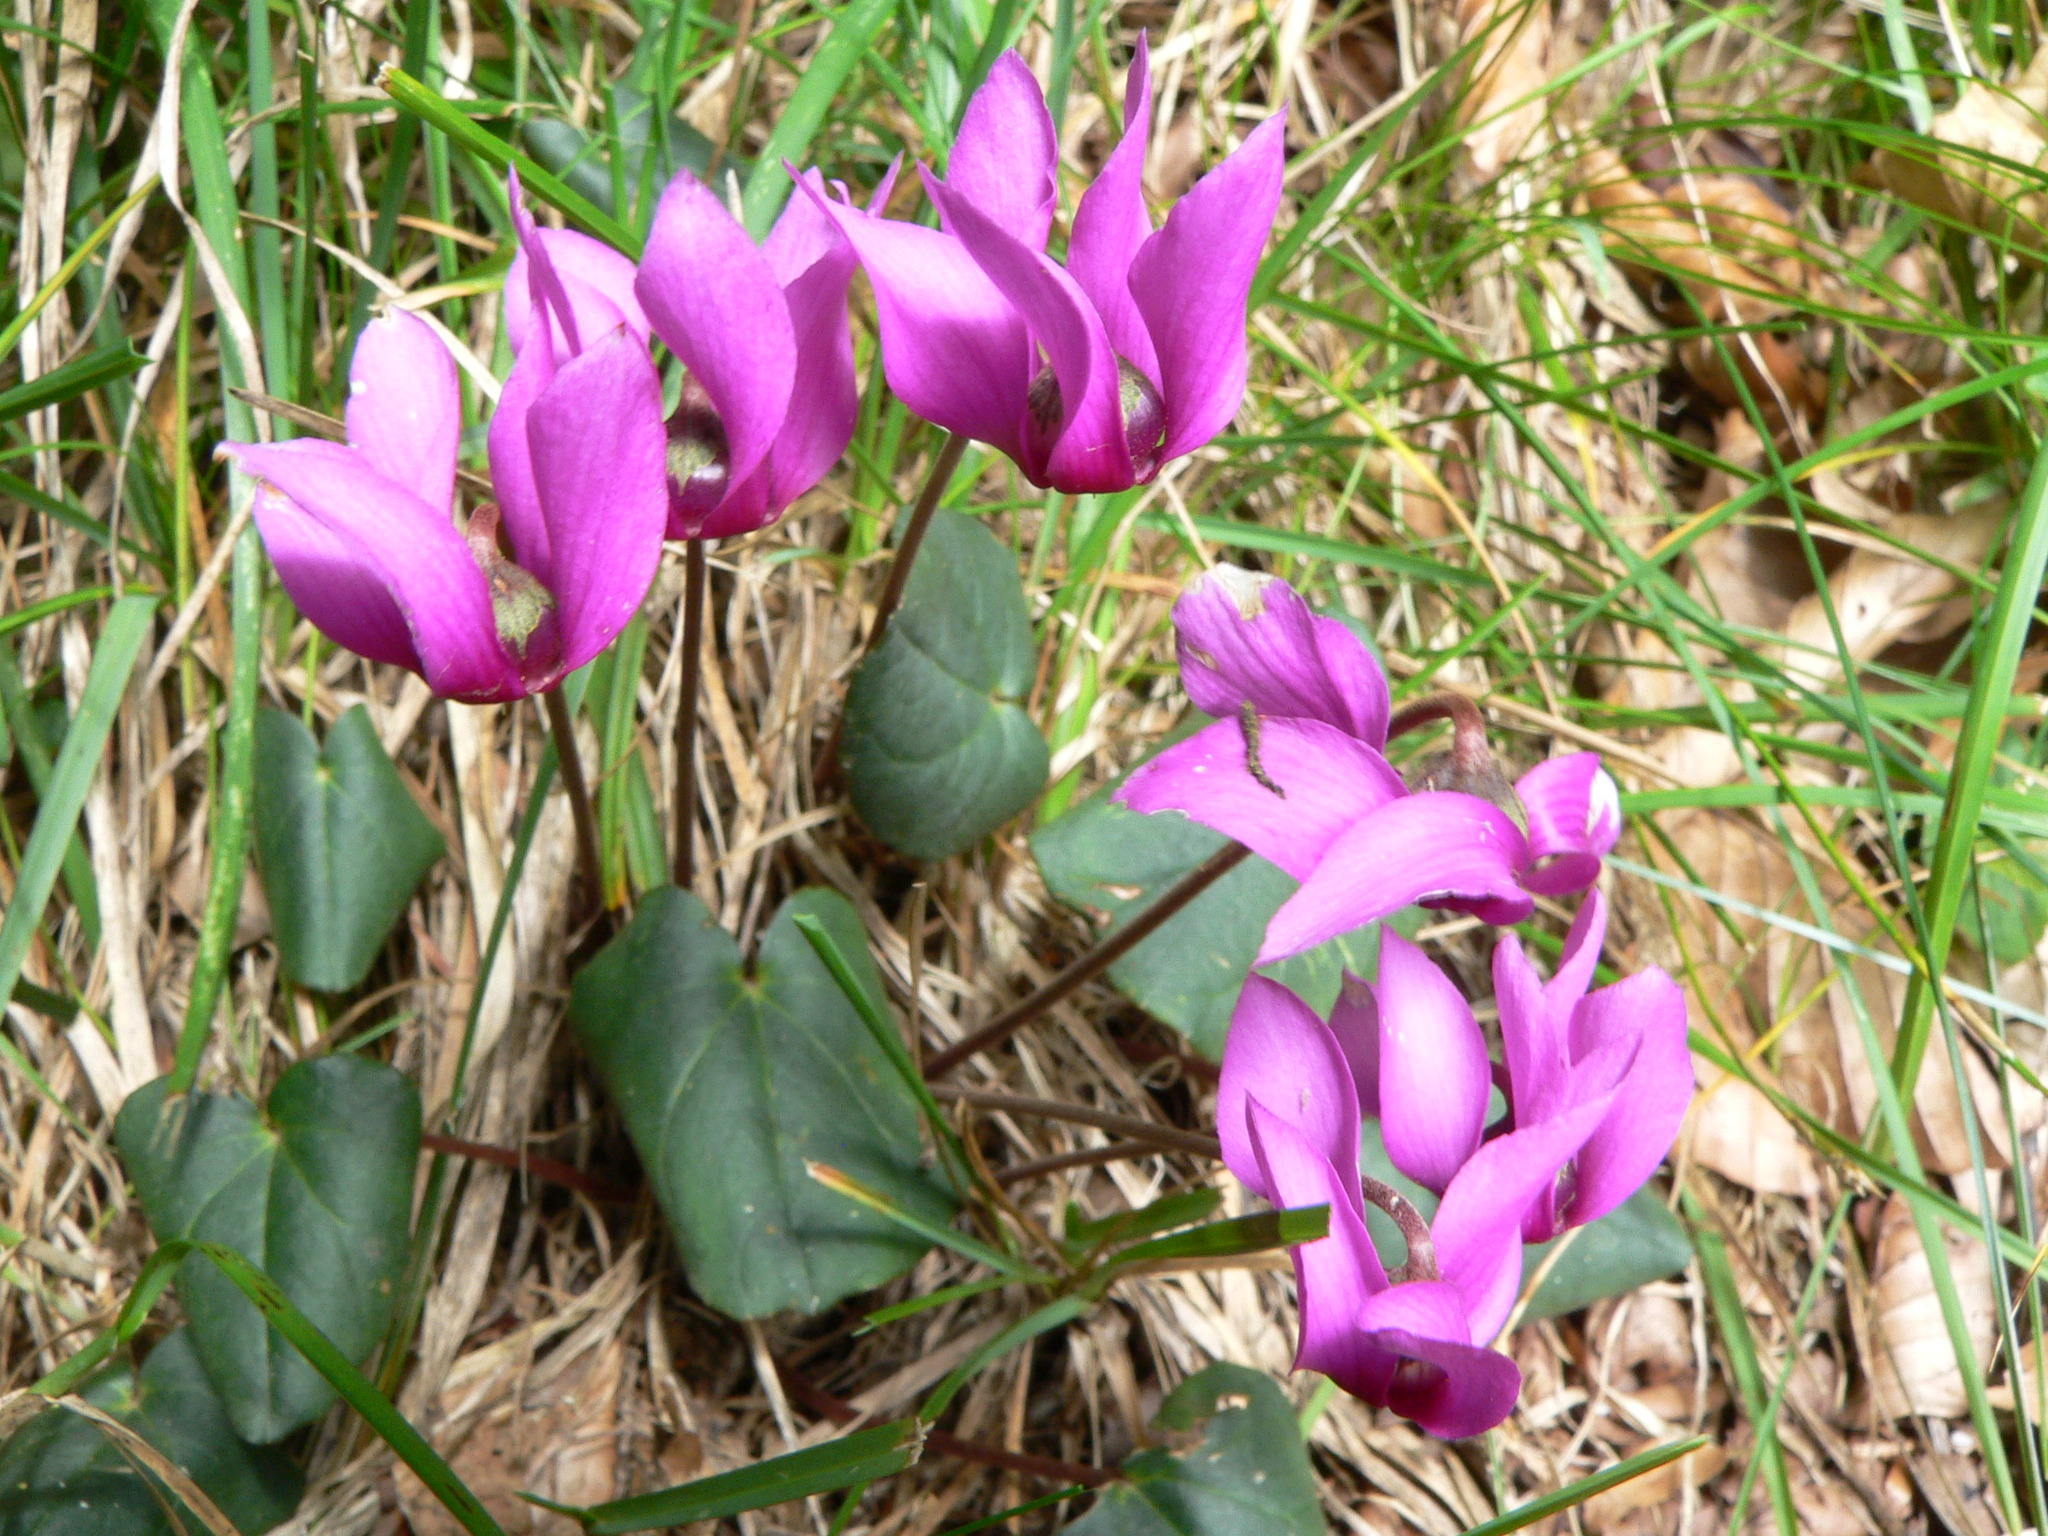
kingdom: Plantae
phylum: Tracheophyta
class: Magnoliopsida
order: Ericales
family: Primulaceae
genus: Cyclamen
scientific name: Cyclamen purpurascens
